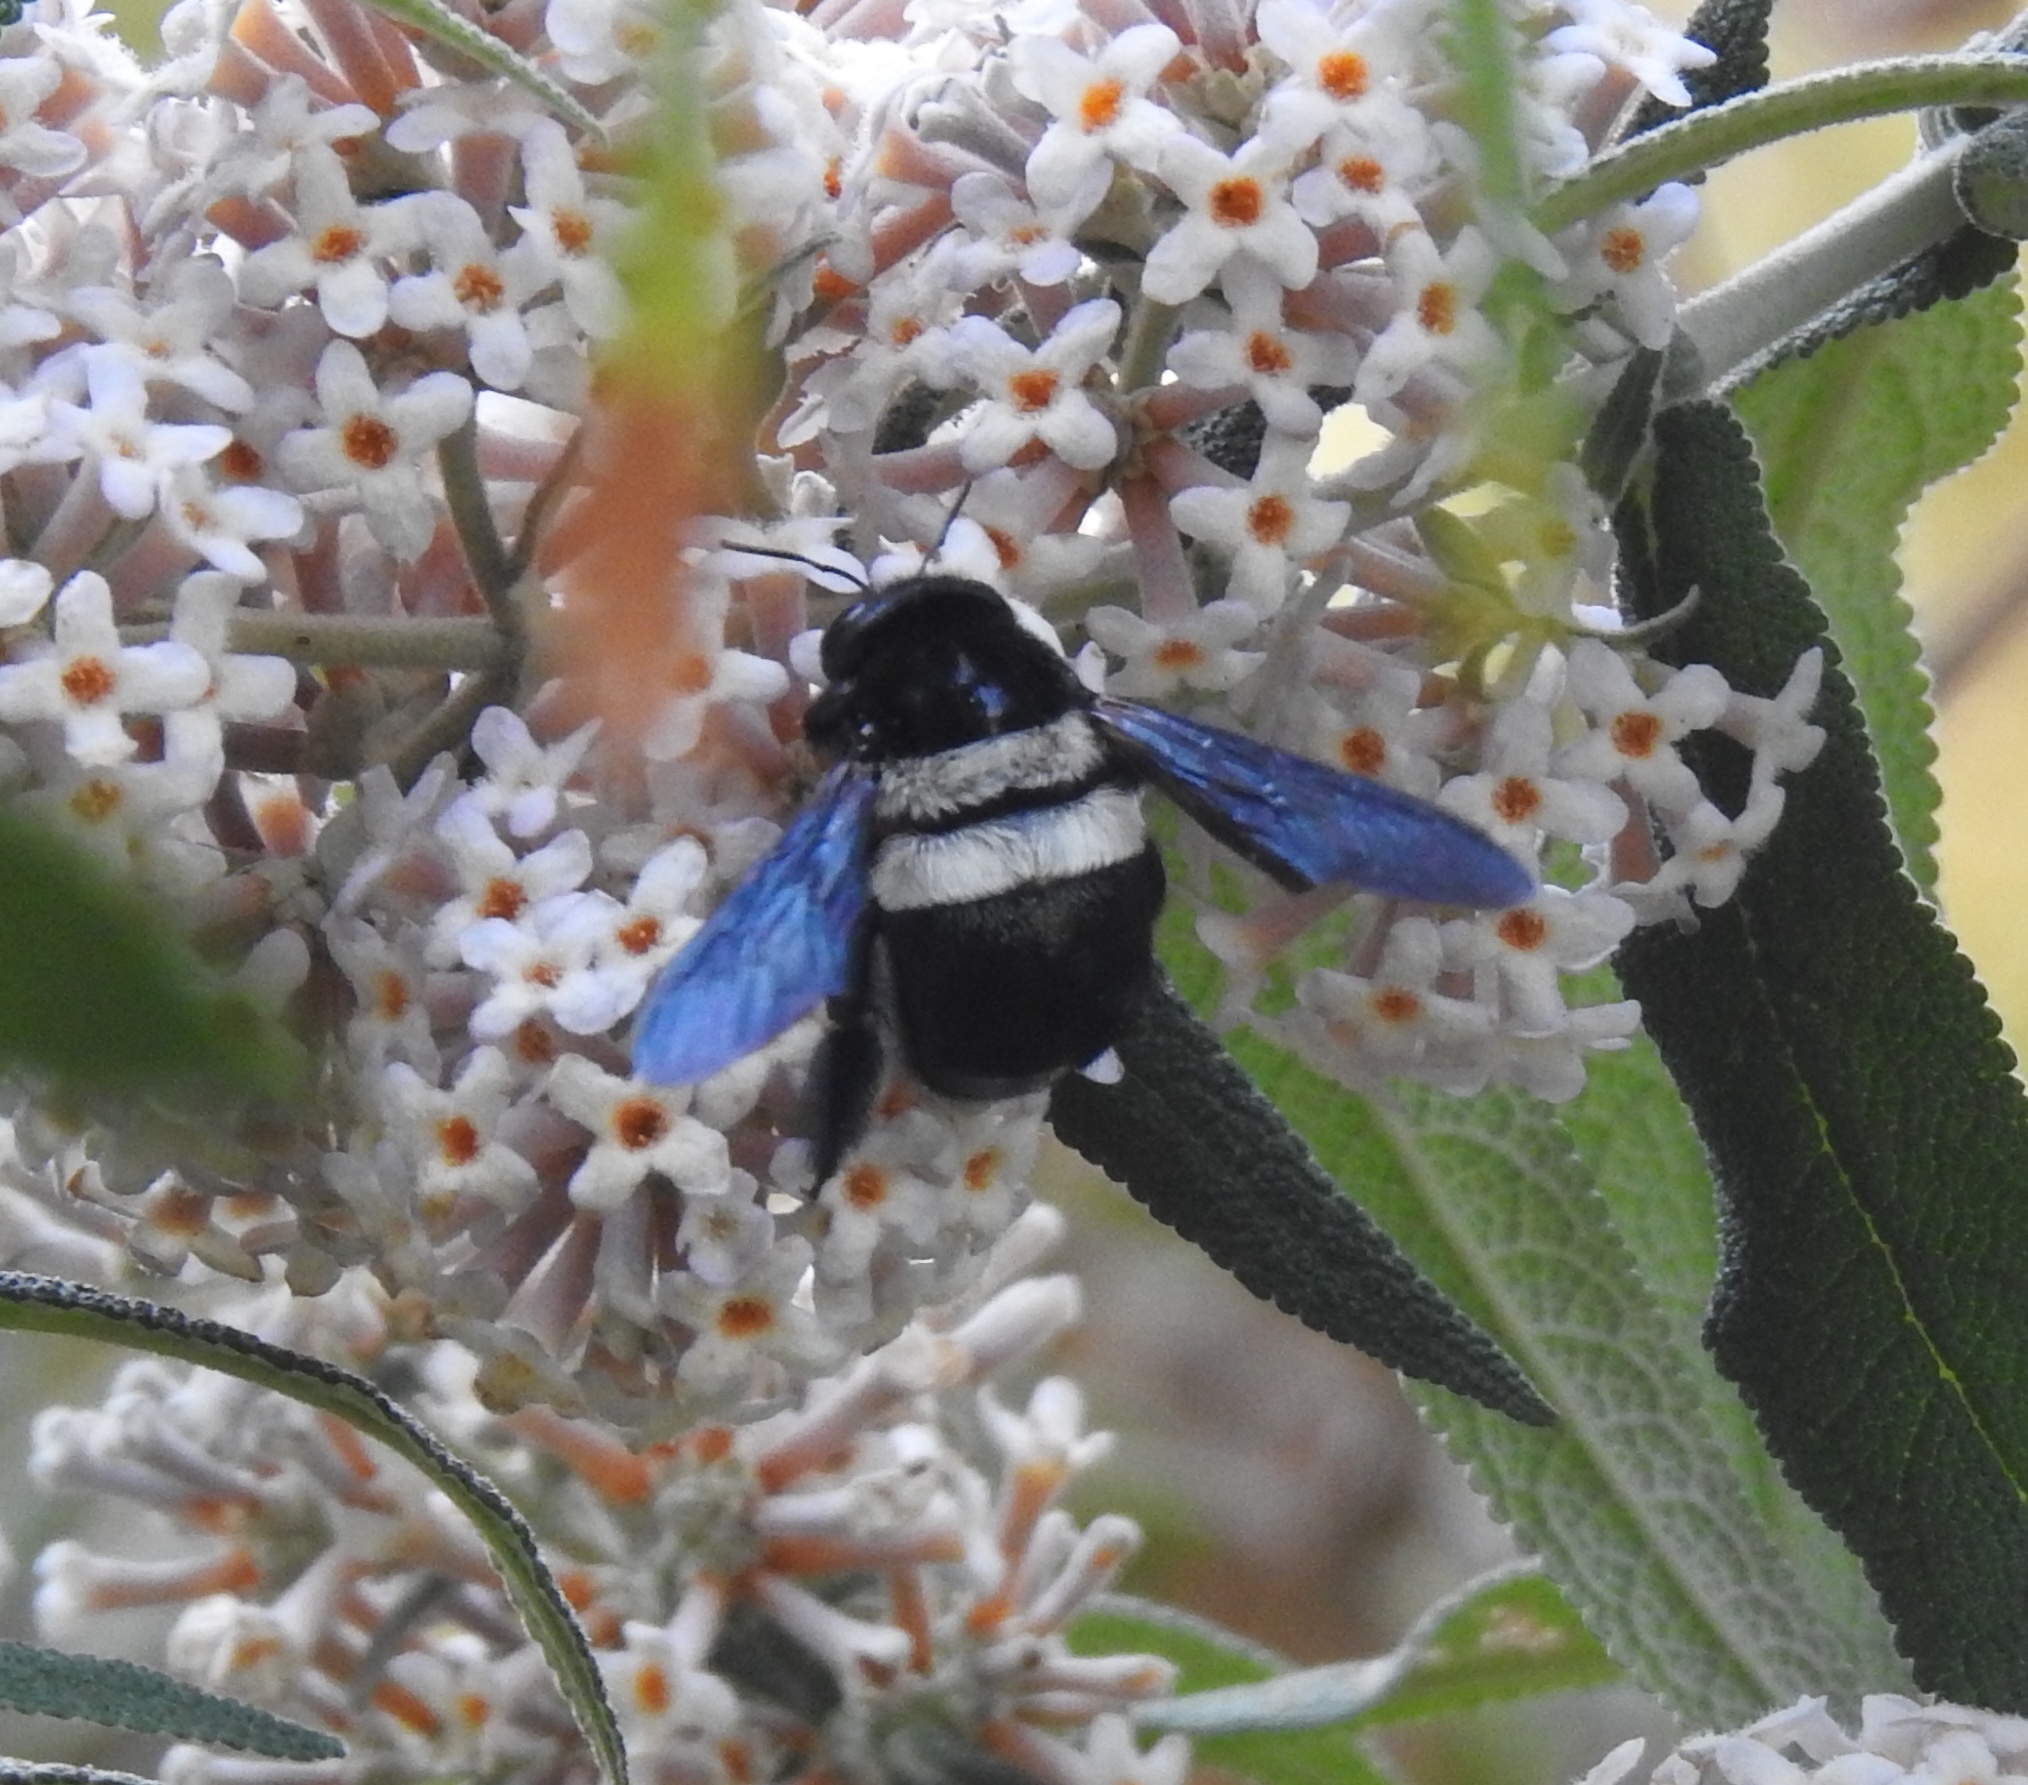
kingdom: Animalia
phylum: Arthropoda
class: Insecta
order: Hymenoptera
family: Apidae
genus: Xylocopa
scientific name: Xylocopa caffra
